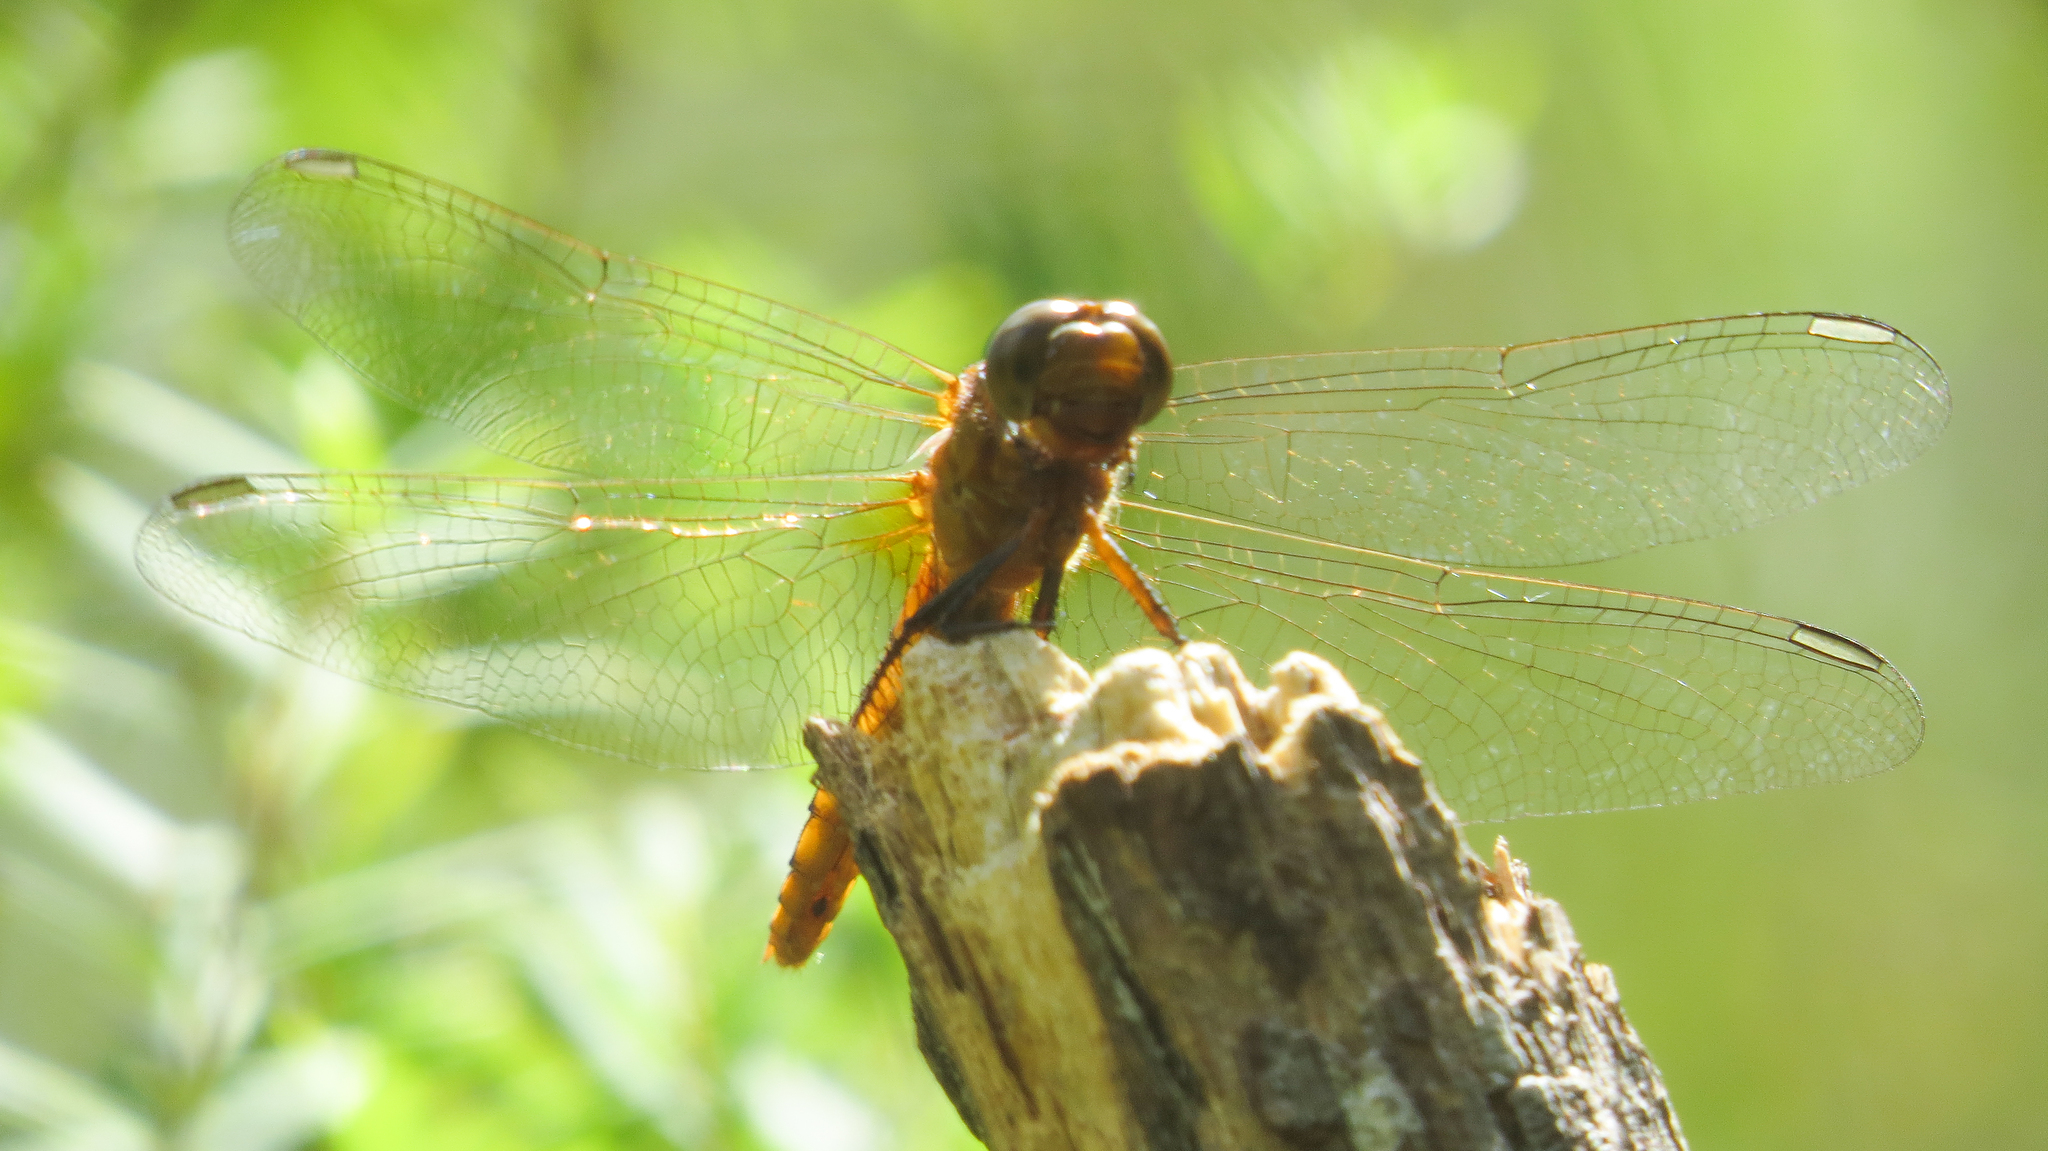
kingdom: Animalia
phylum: Arthropoda
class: Insecta
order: Odonata
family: Libellulidae
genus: Orthetrum
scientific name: Orthetrum villosovittatum
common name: Firery skimmer
